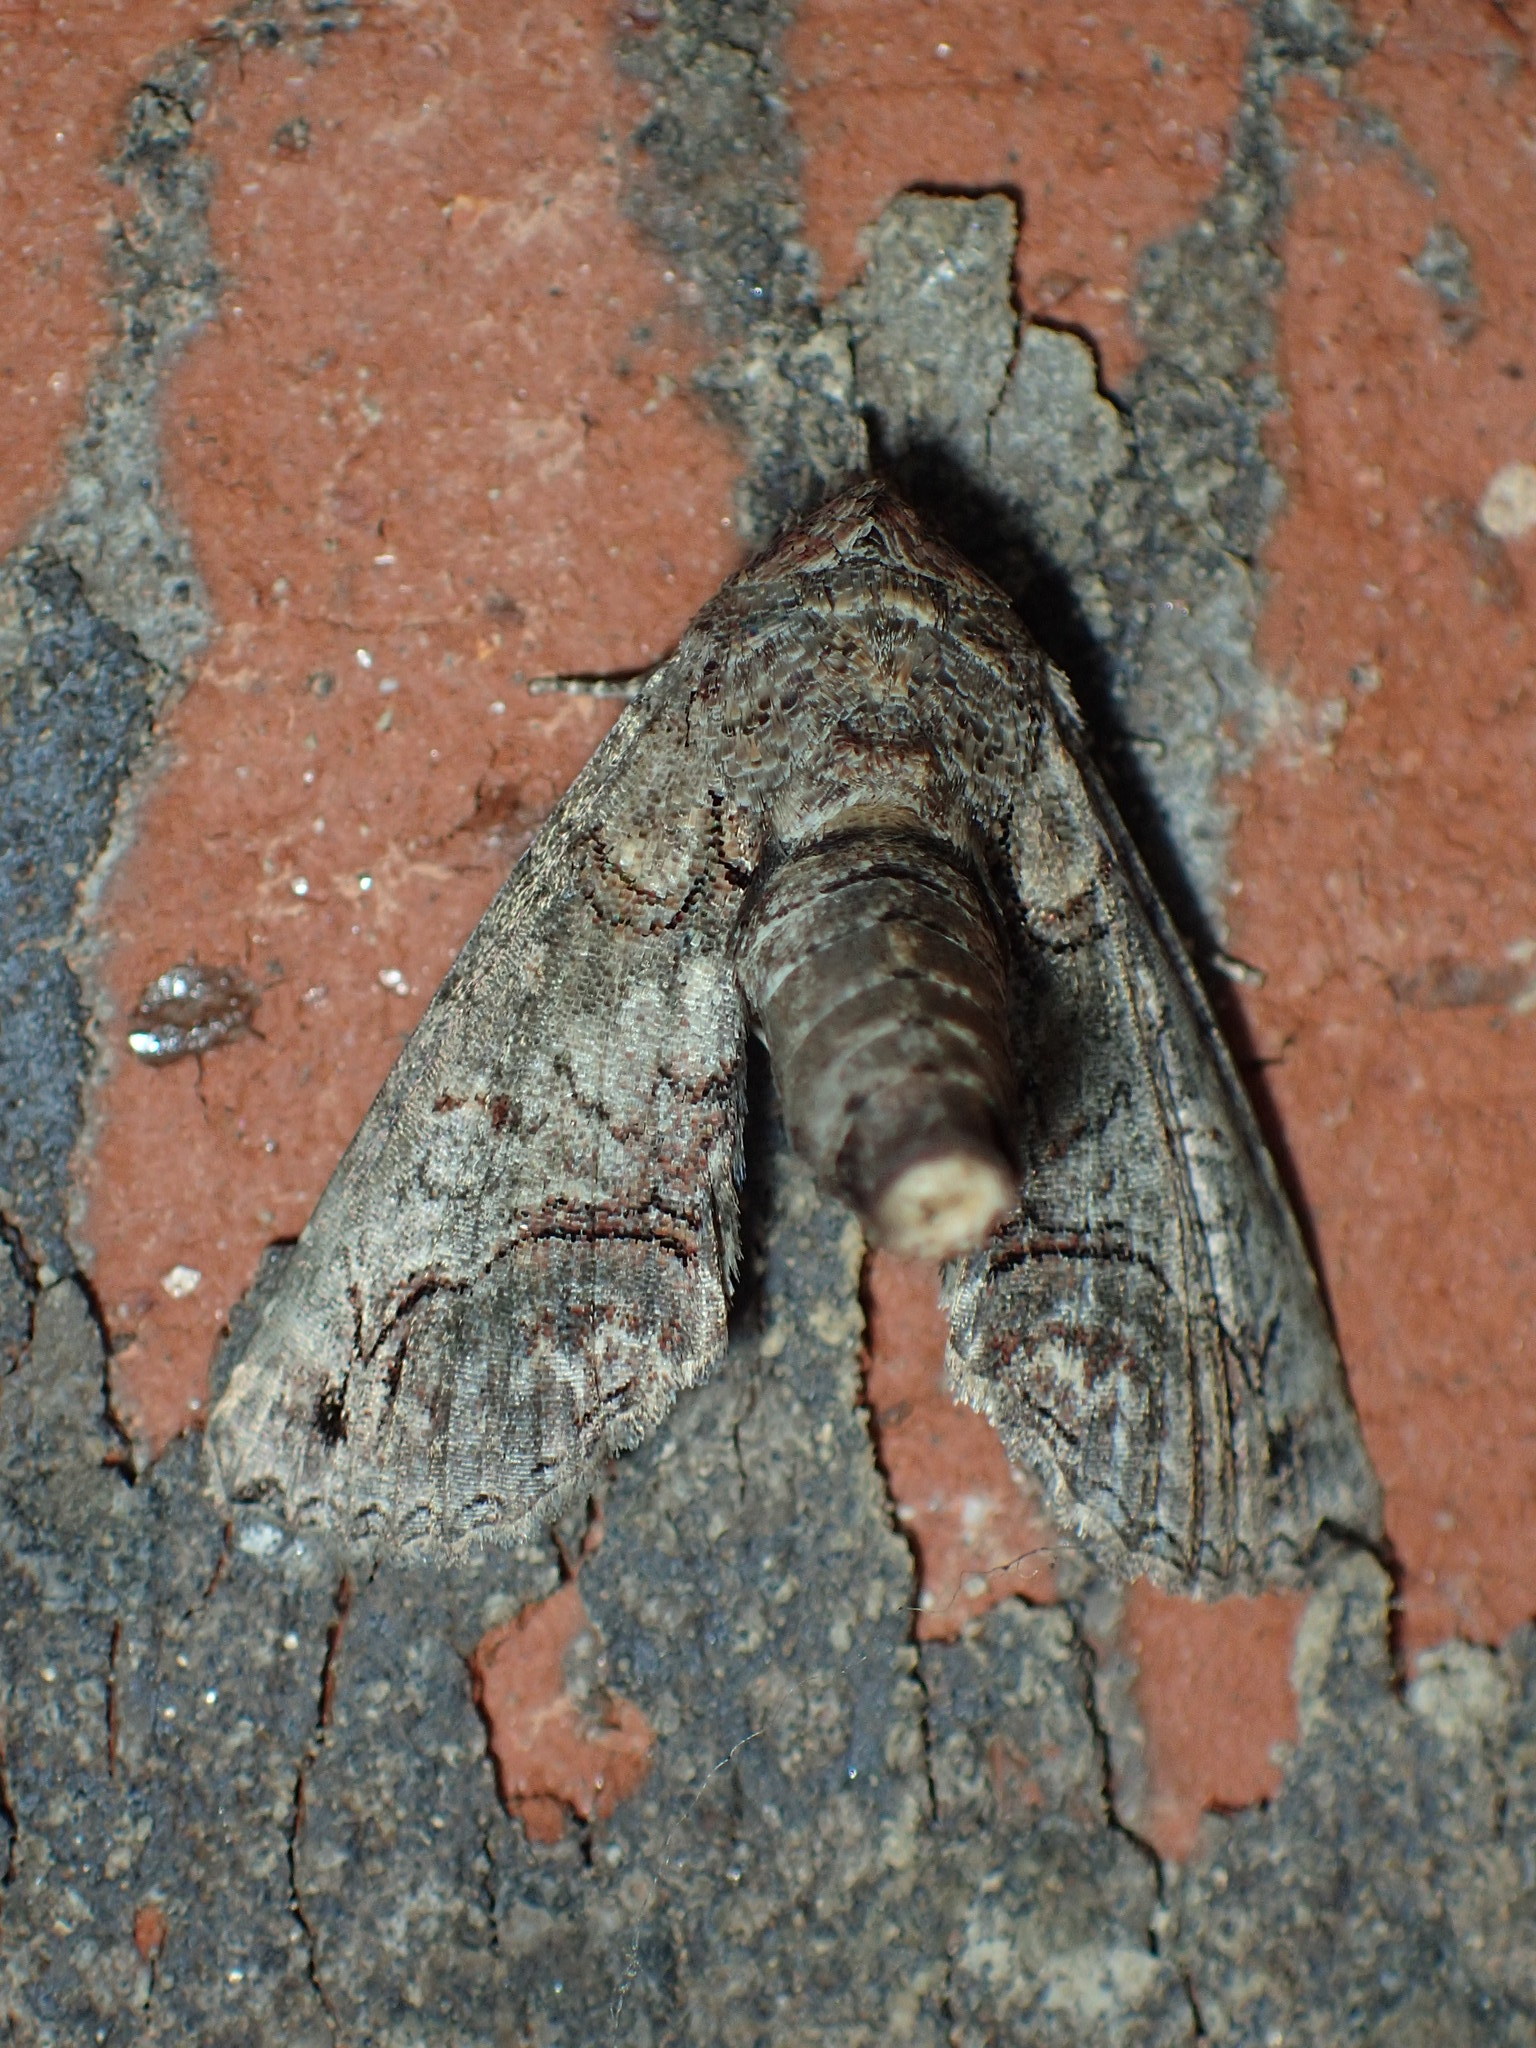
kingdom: Animalia
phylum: Arthropoda
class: Insecta
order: Lepidoptera
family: Euteliidae
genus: Paectes
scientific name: Paectes abrostoloides
